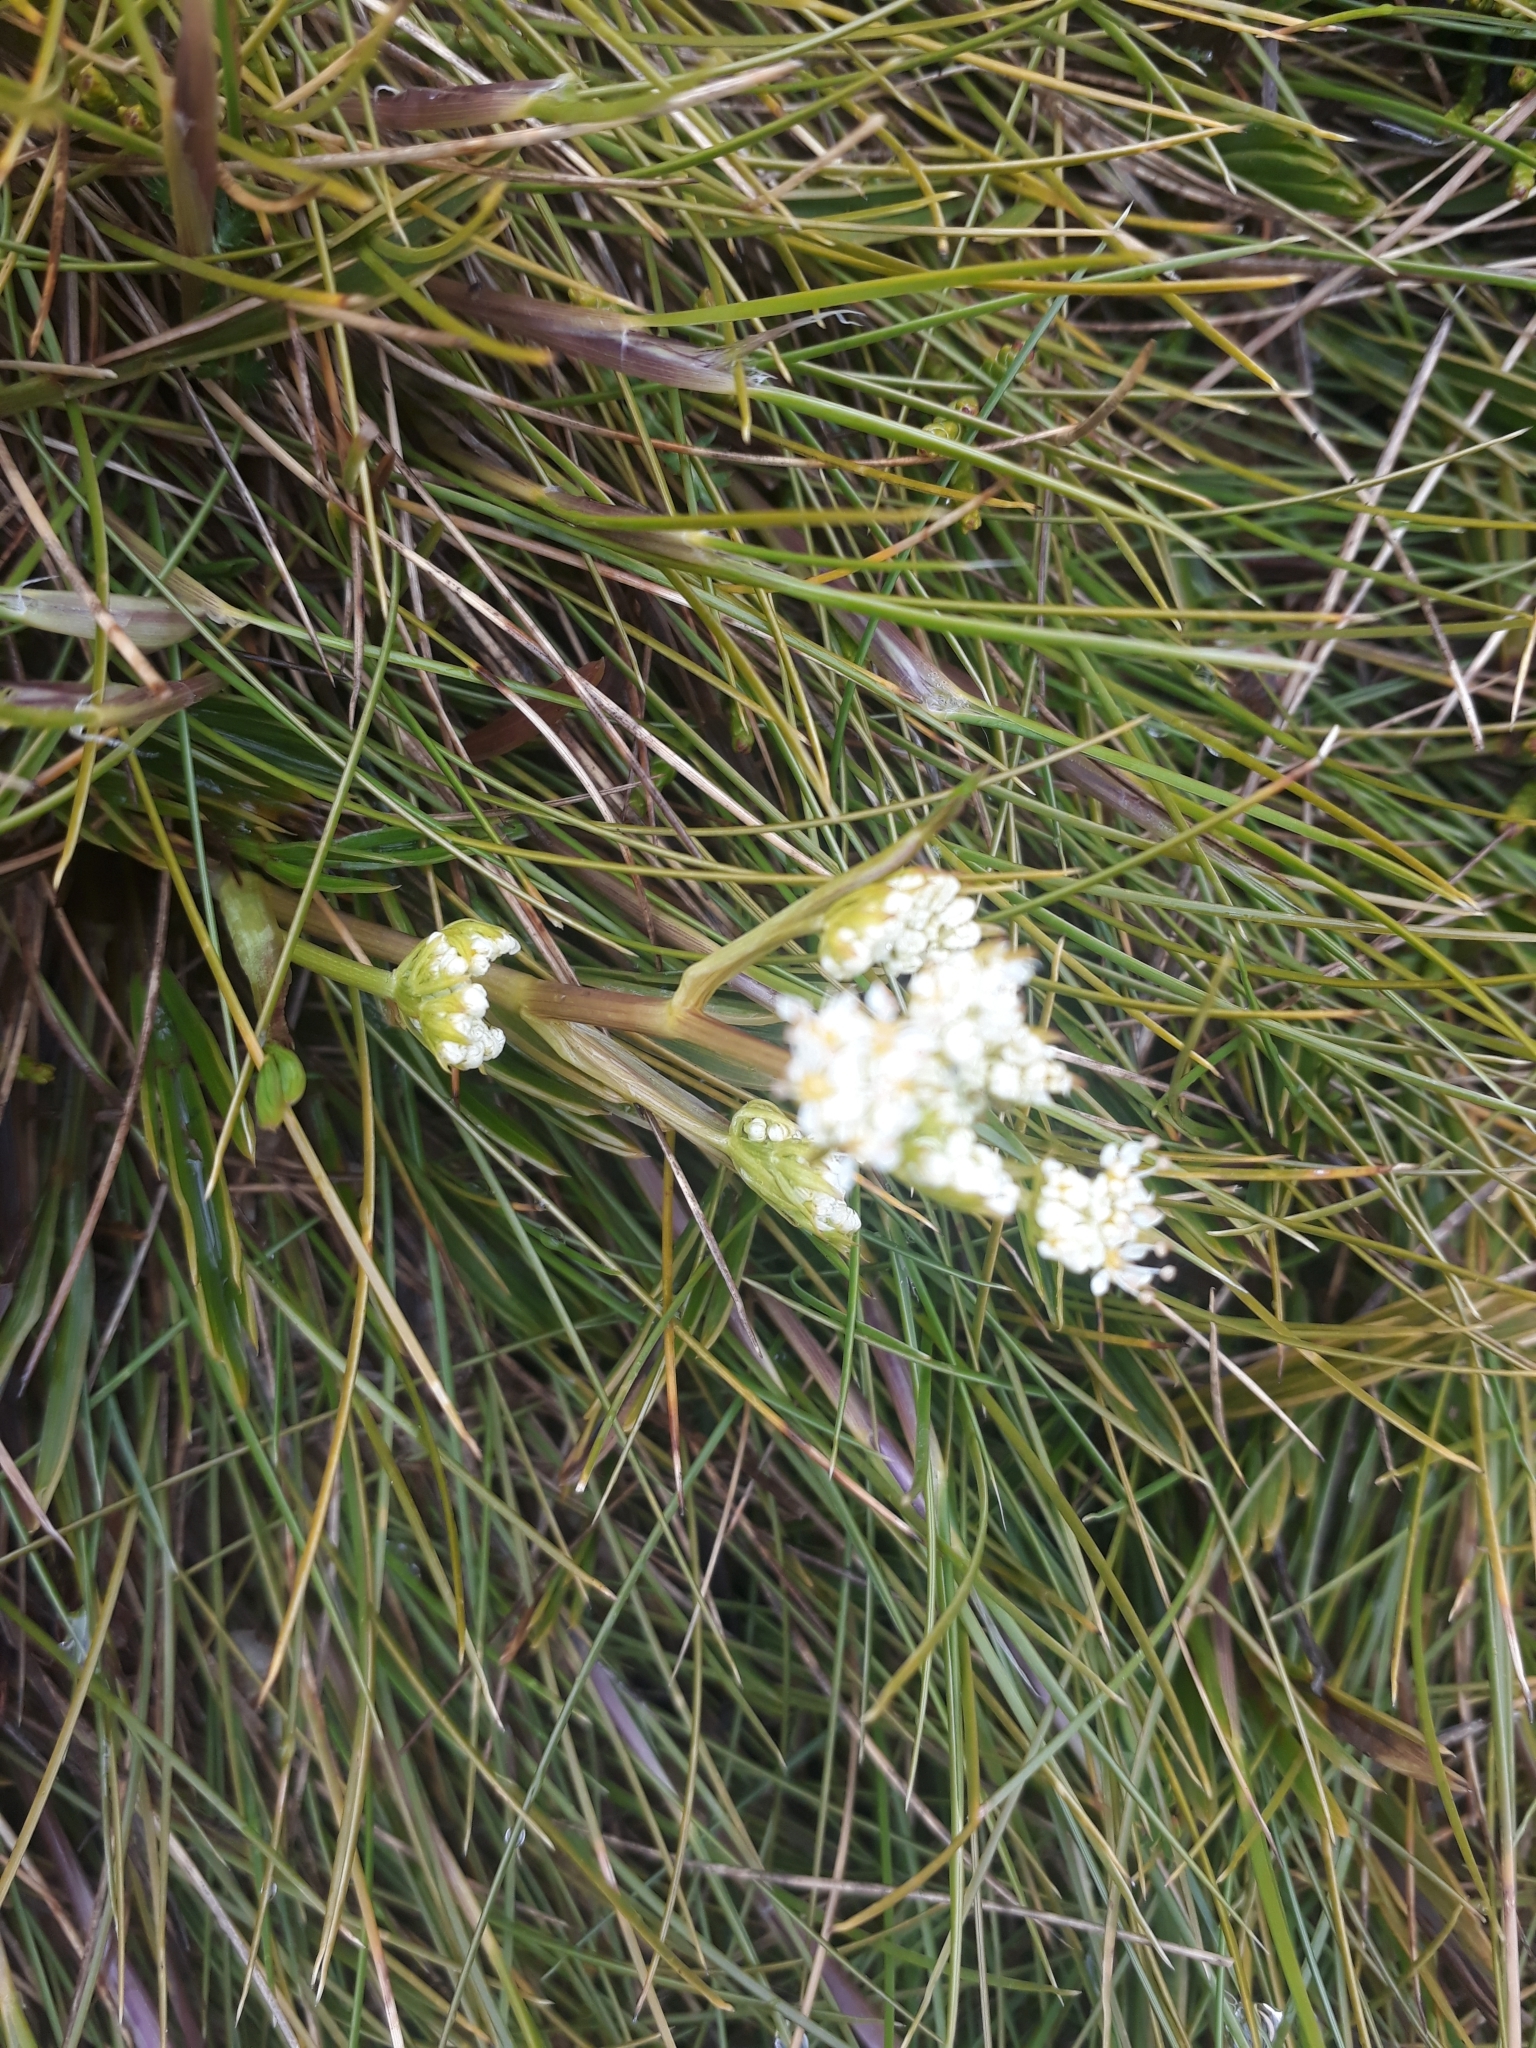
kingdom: Plantae
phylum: Tracheophyta
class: Magnoliopsida
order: Apiales
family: Apiaceae
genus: Aciphylla
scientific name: Aciphylla monroi
